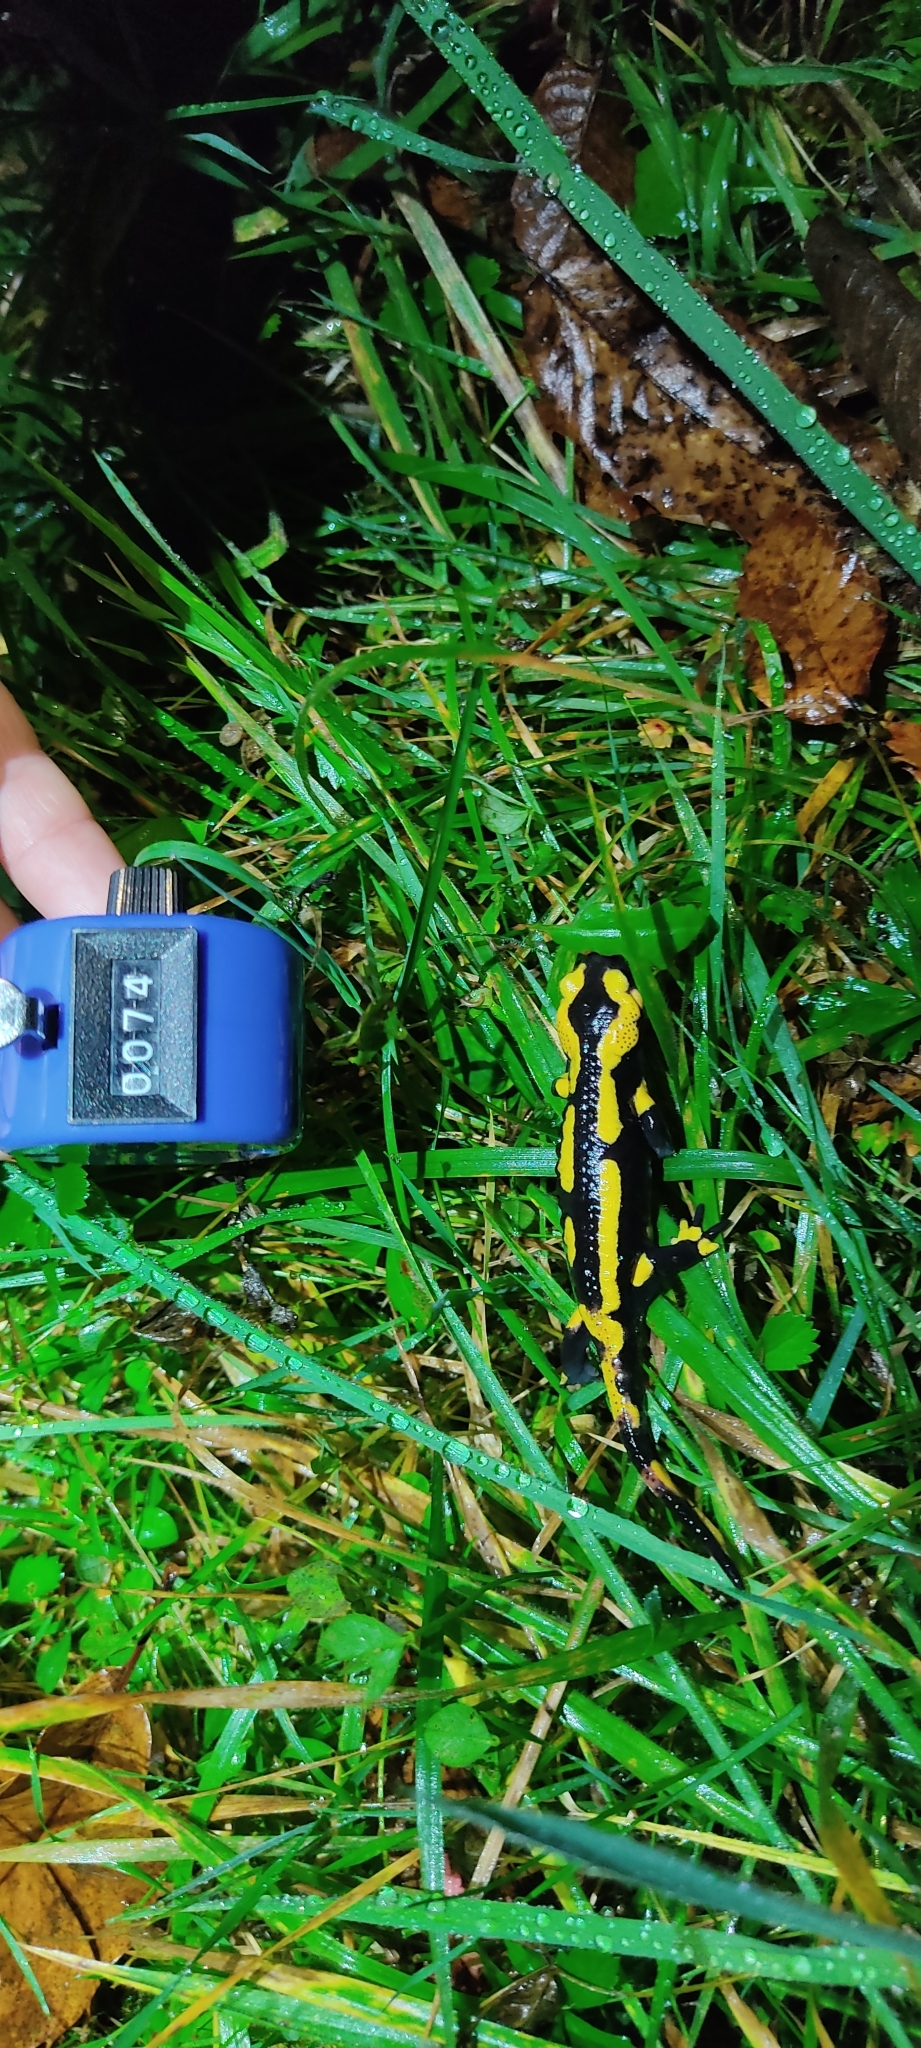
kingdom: Animalia
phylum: Chordata
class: Amphibia
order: Caudata
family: Salamandridae
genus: Salamandra
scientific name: Salamandra salamandra
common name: Fire salamander
